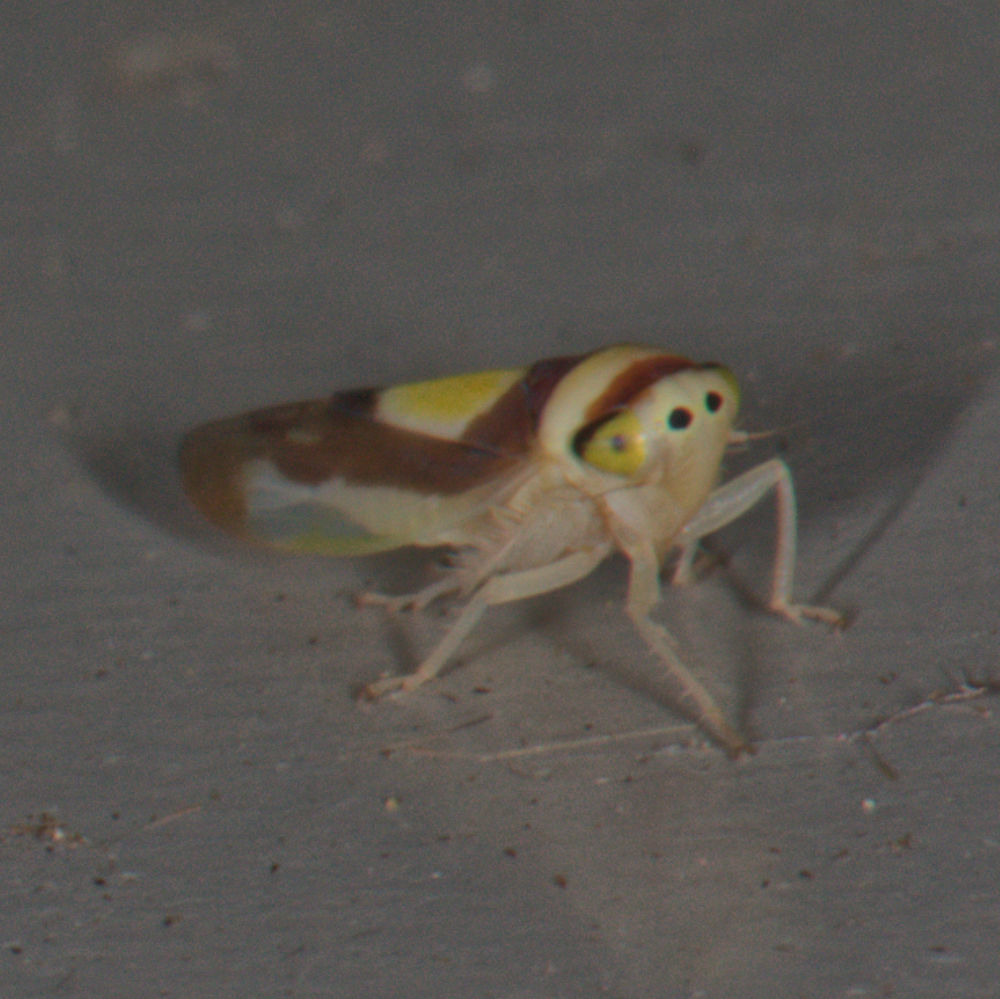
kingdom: Animalia
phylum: Arthropoda
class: Insecta
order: Hemiptera
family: Cicadellidae
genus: Colladonus
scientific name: Colladonus clitellarius
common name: The saddleback leafhopper
